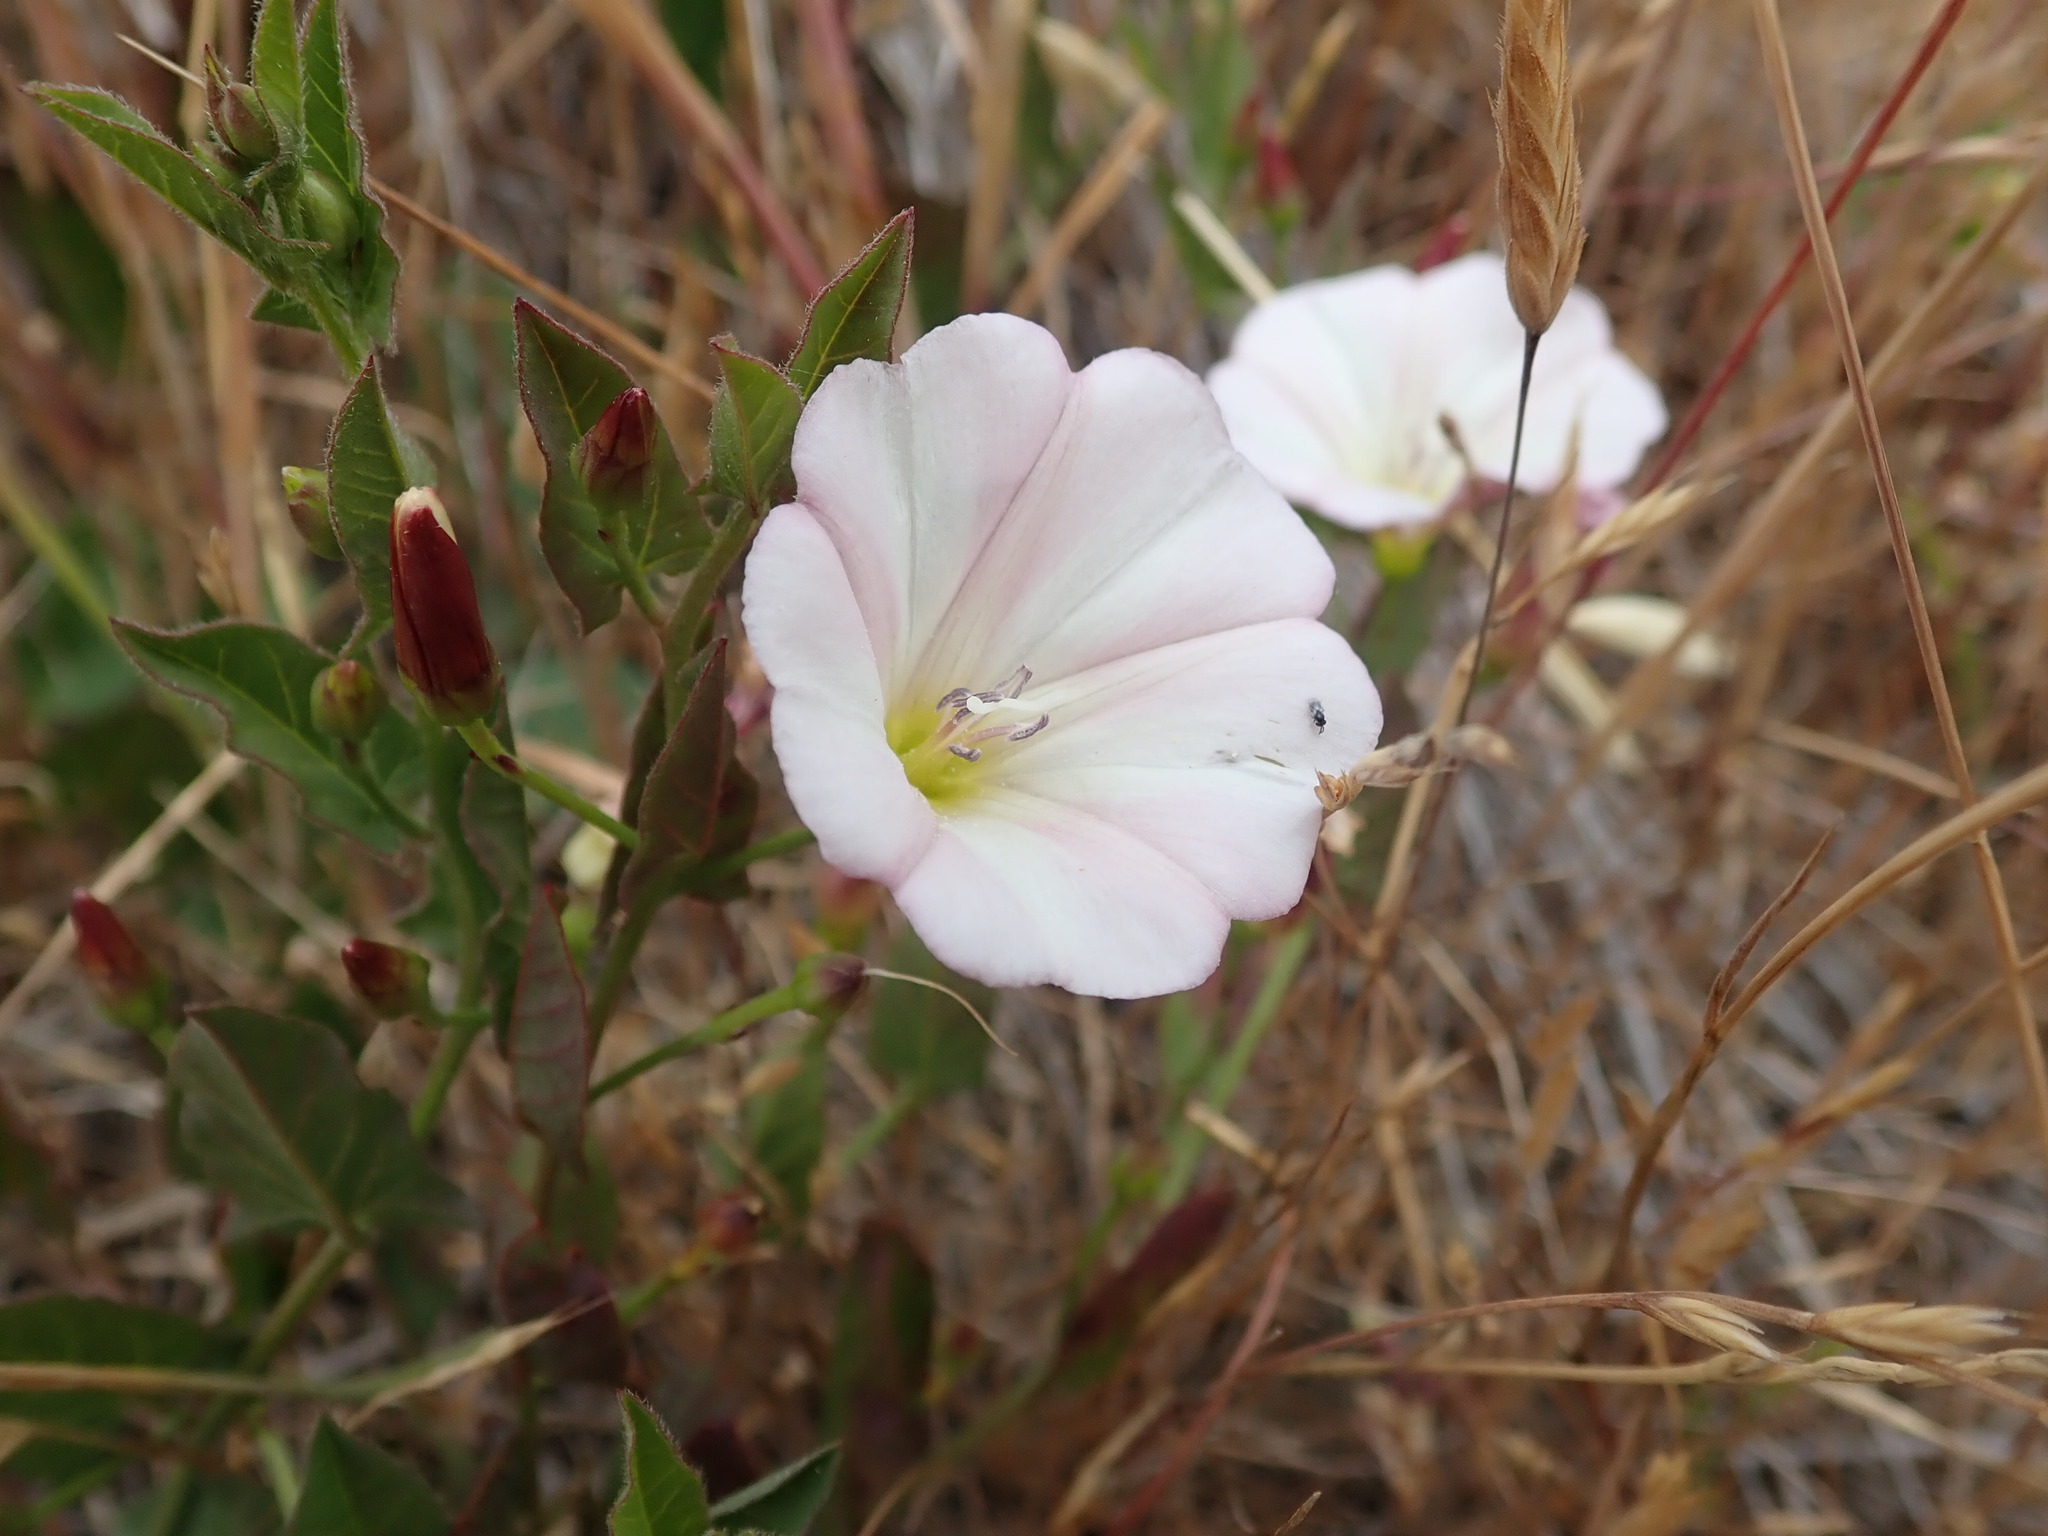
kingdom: Plantae
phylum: Tracheophyta
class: Magnoliopsida
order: Solanales
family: Convolvulaceae
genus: Convolvulus
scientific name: Convolvulus arvensis
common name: Field bindweed
